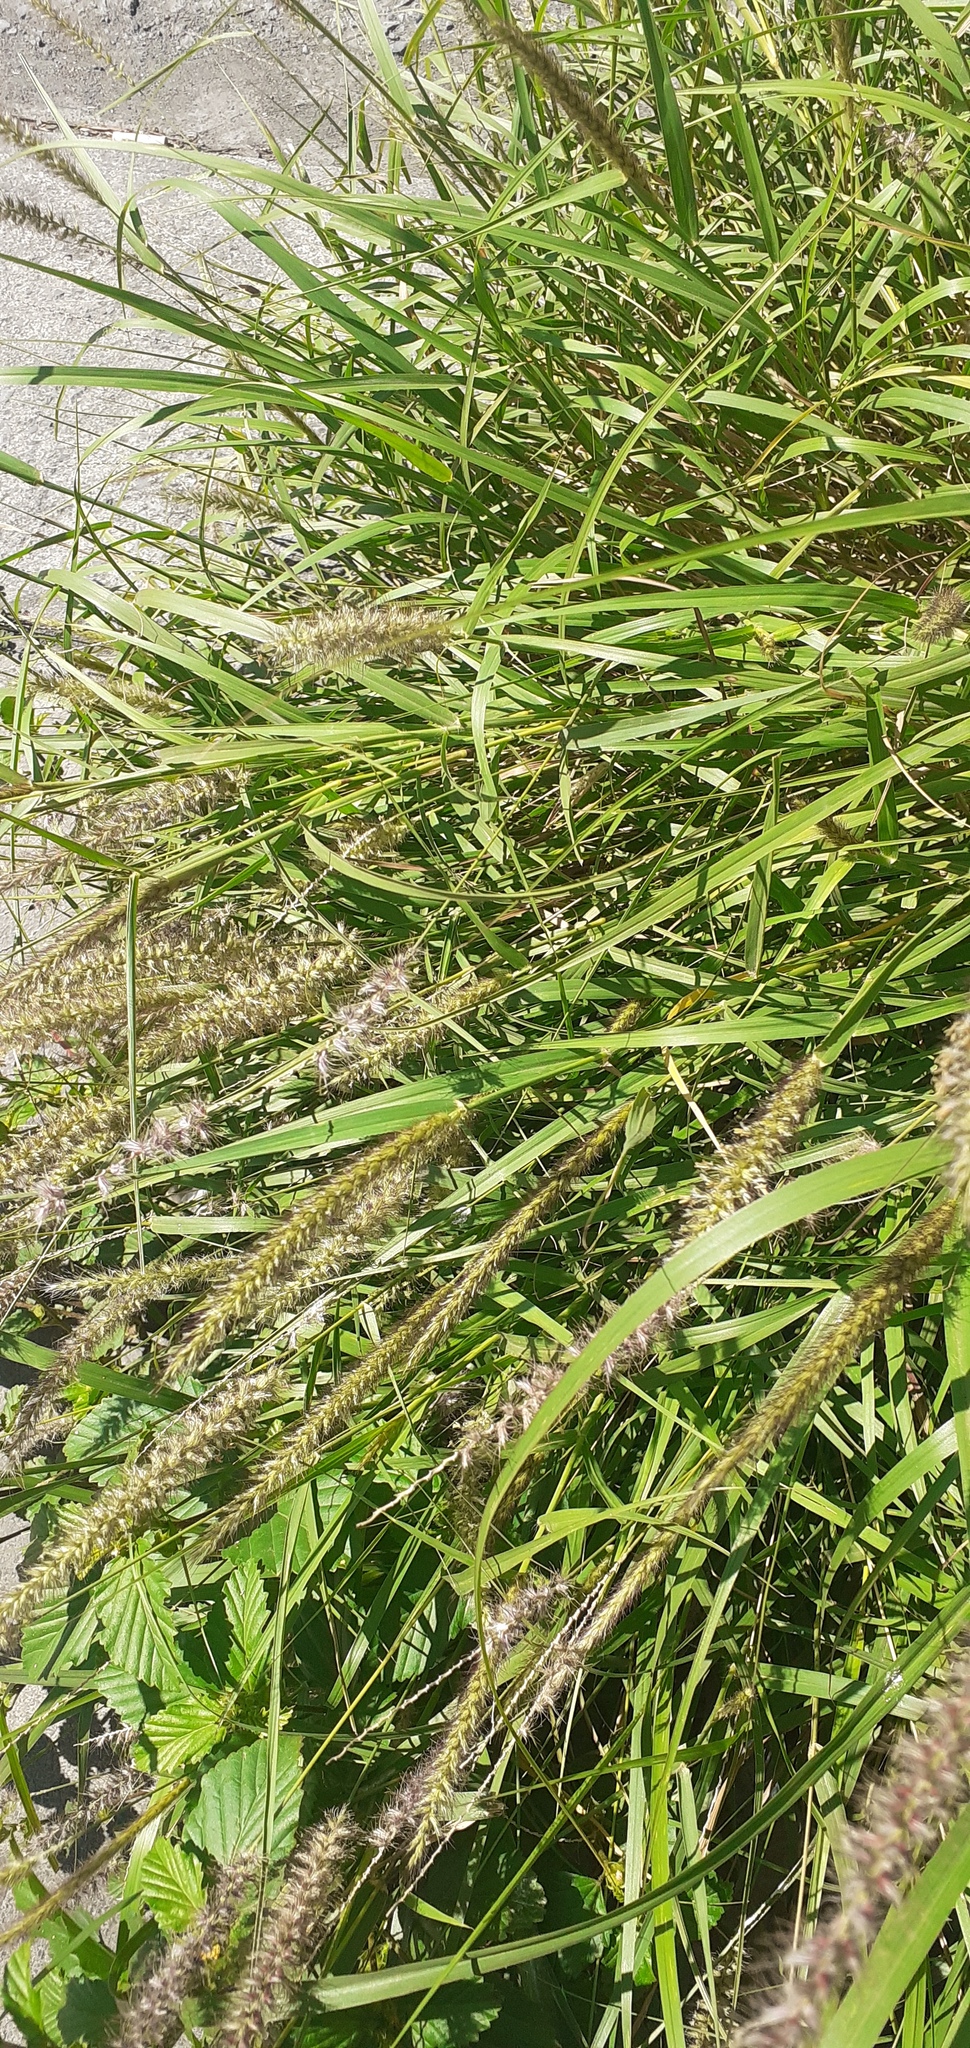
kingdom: Plantae
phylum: Tracheophyta
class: Liliopsida
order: Poales
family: Poaceae
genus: Cenchrus
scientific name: Cenchrus ciliaris
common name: Buffelgrass
